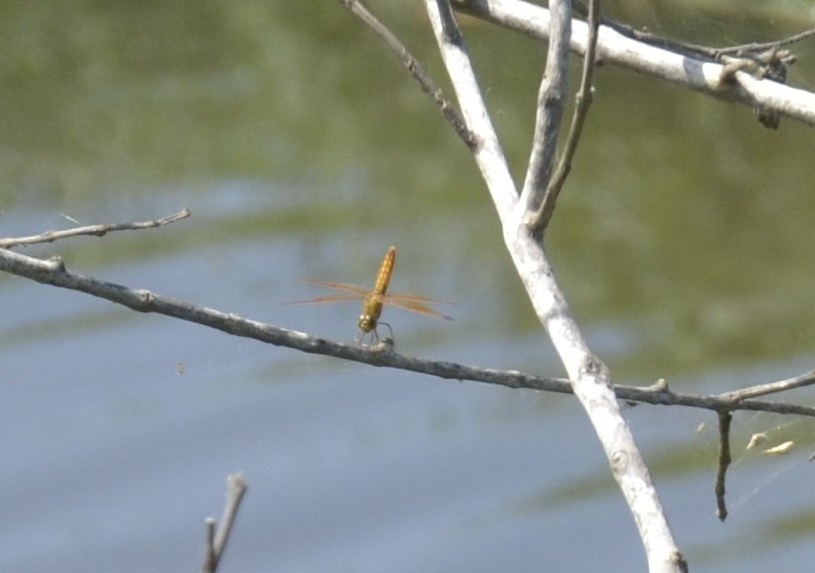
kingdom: Animalia
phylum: Arthropoda
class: Insecta
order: Odonata
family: Libellulidae
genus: Brachythemis
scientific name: Brachythemis contaminata
